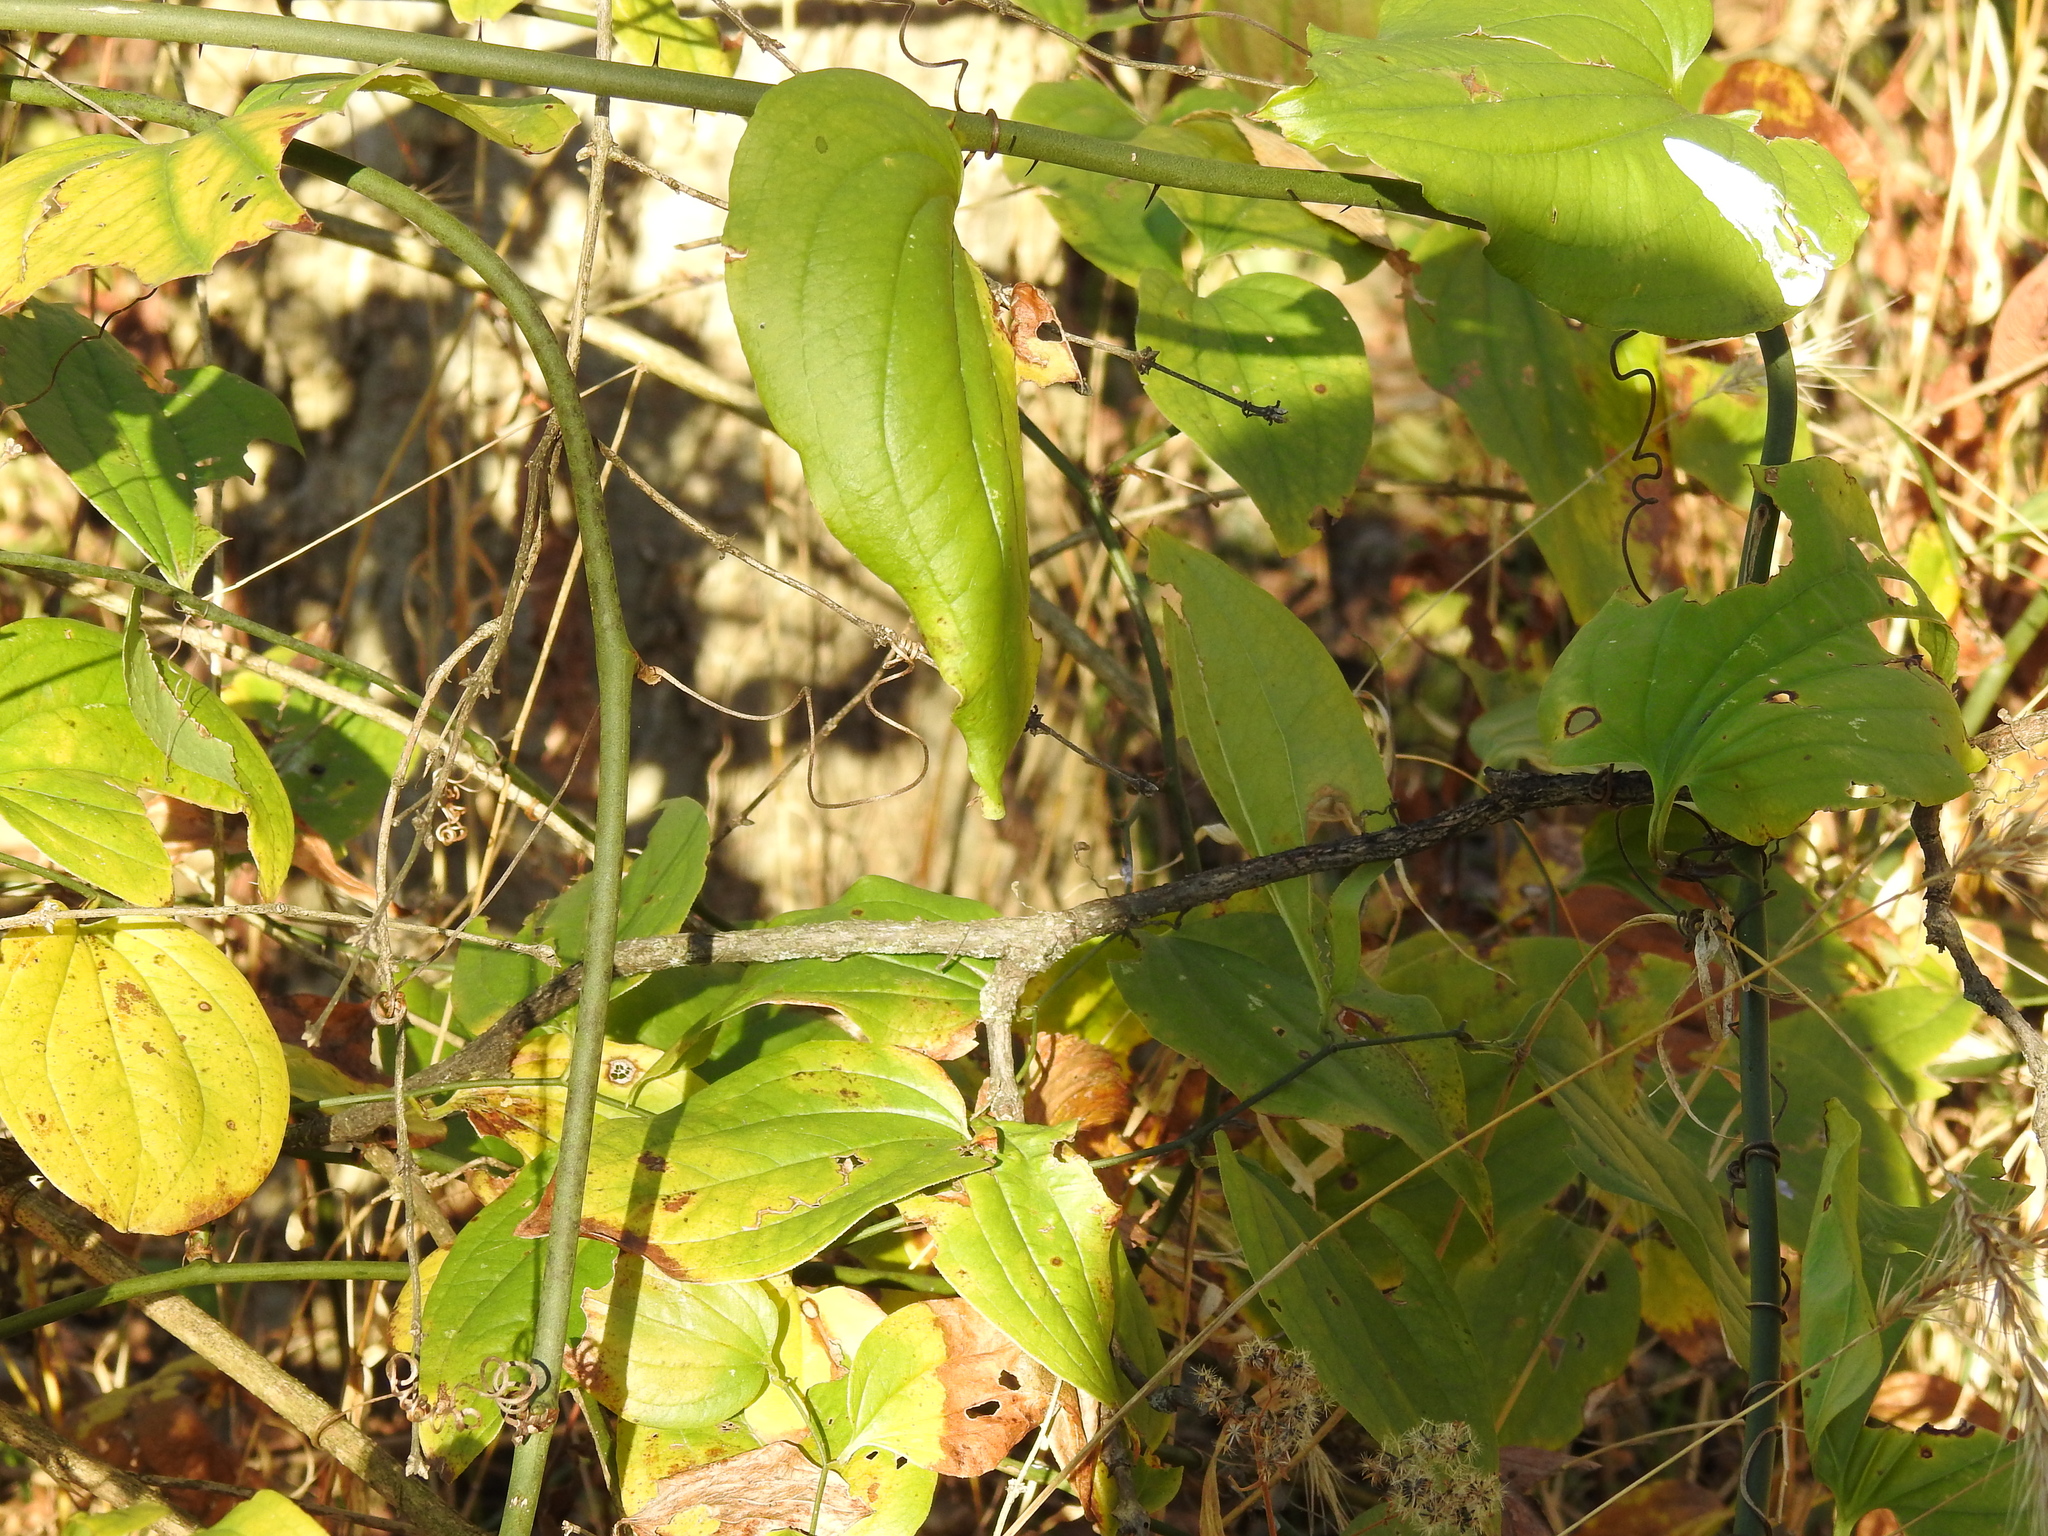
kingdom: Plantae
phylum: Tracheophyta
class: Liliopsida
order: Liliales
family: Smilacaceae
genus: Smilax
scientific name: Smilax tamnoides
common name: Hellfetter
